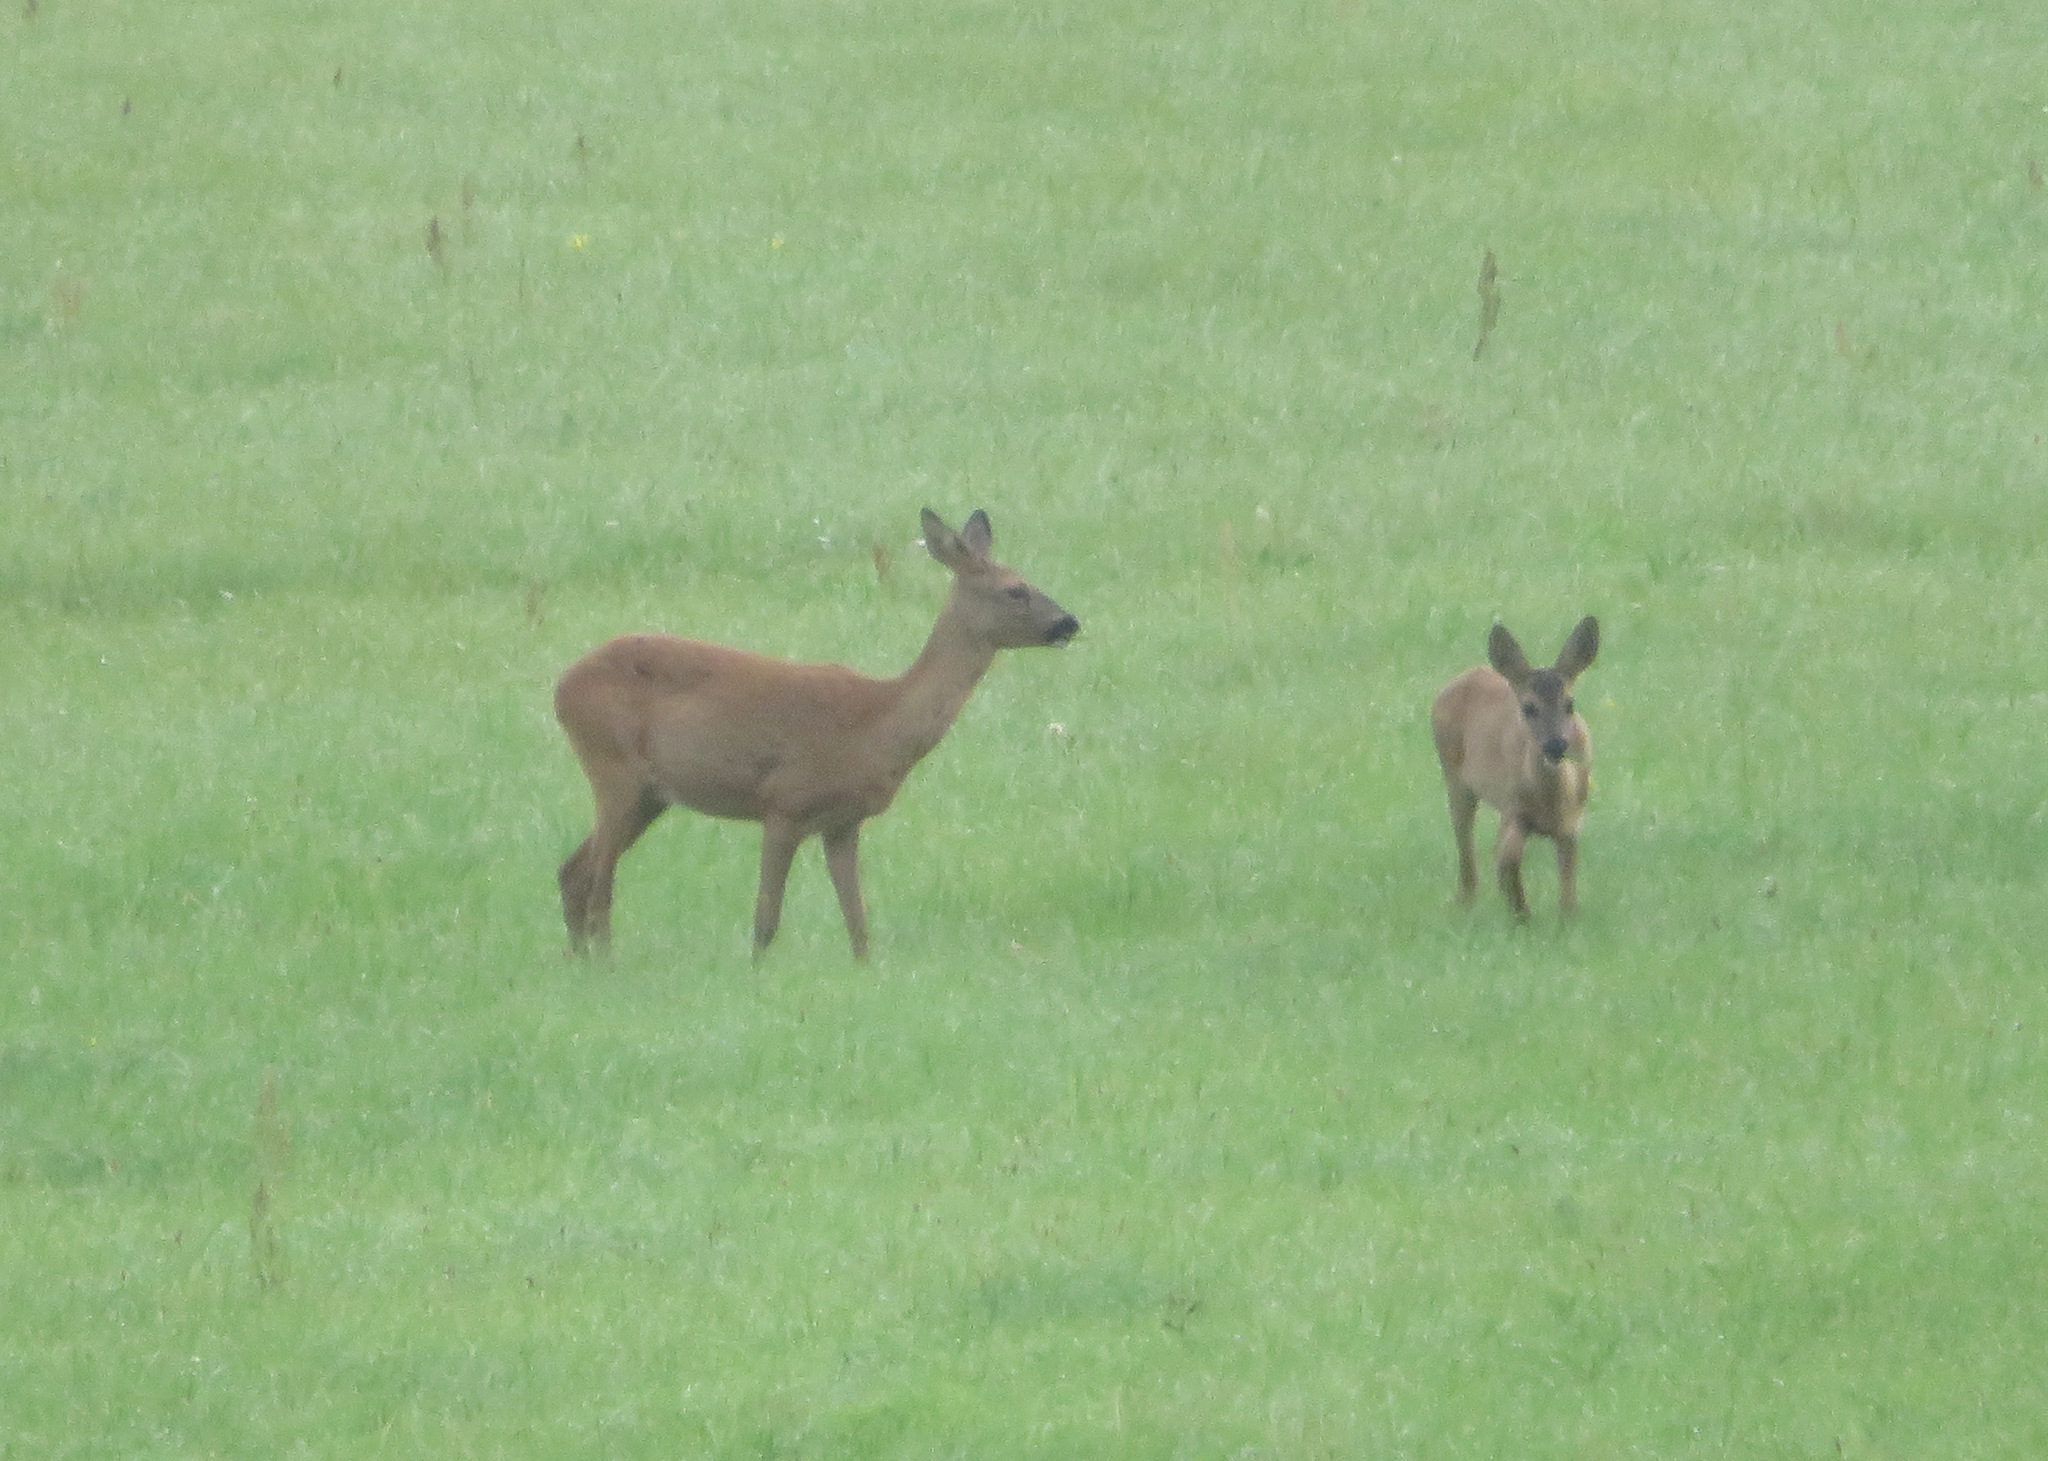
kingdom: Animalia
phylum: Chordata
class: Mammalia
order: Artiodactyla
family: Cervidae
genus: Capreolus
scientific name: Capreolus capreolus
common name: Western roe deer
